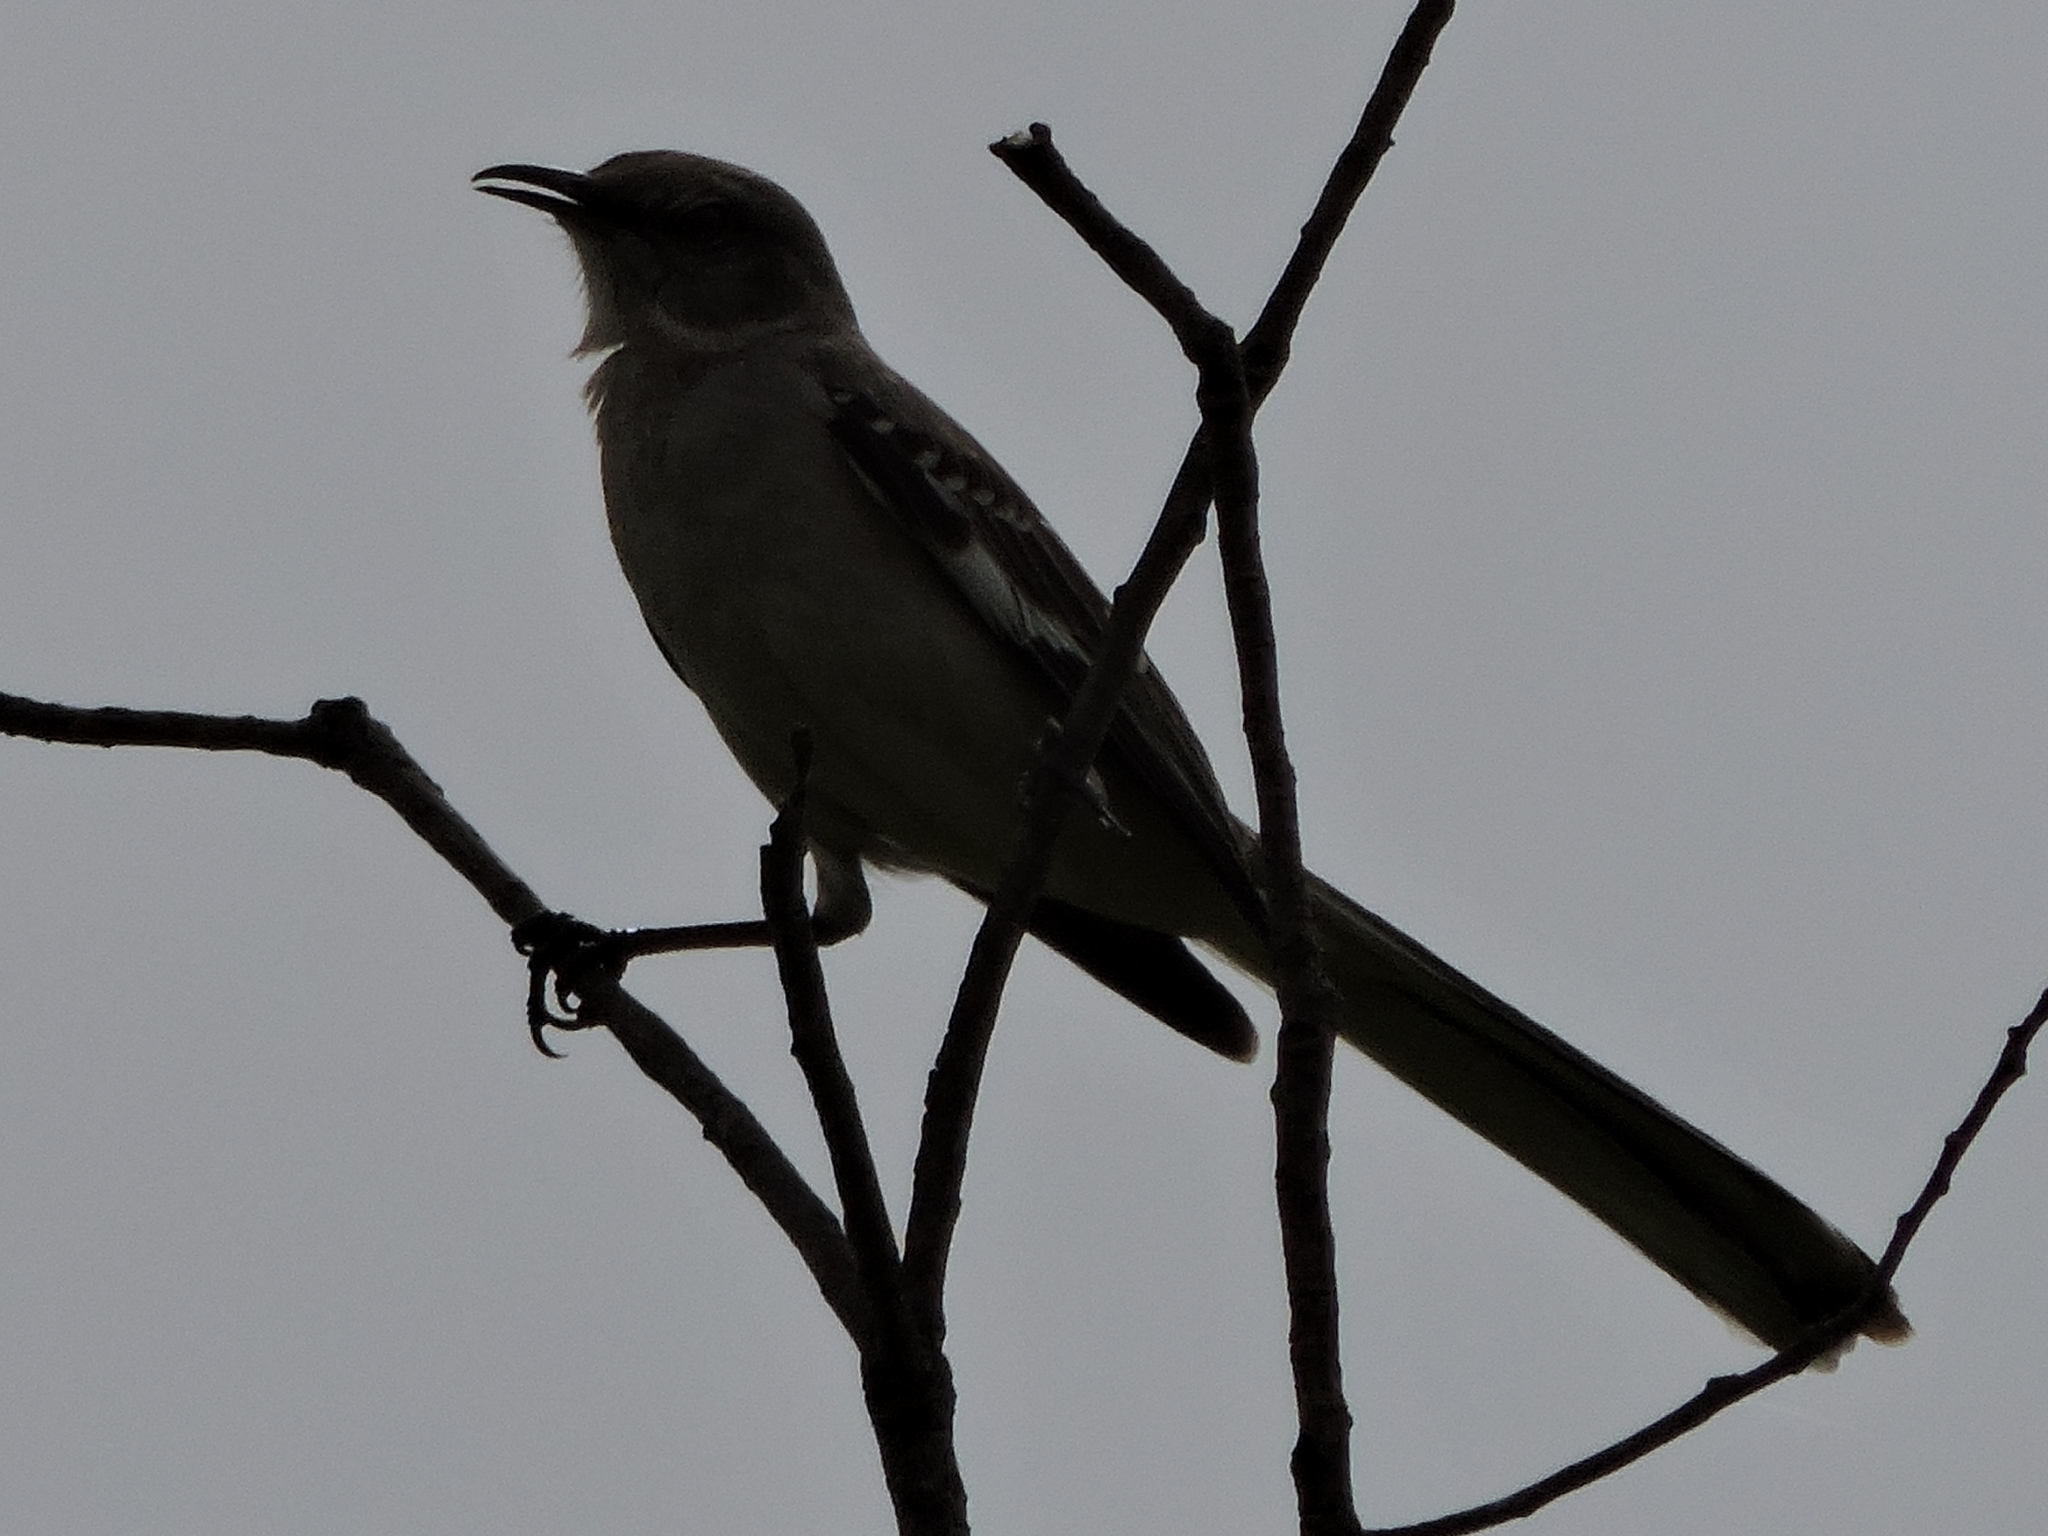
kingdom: Animalia
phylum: Chordata
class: Aves
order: Passeriformes
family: Mimidae
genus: Mimus
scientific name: Mimus polyglottos
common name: Northern mockingbird
